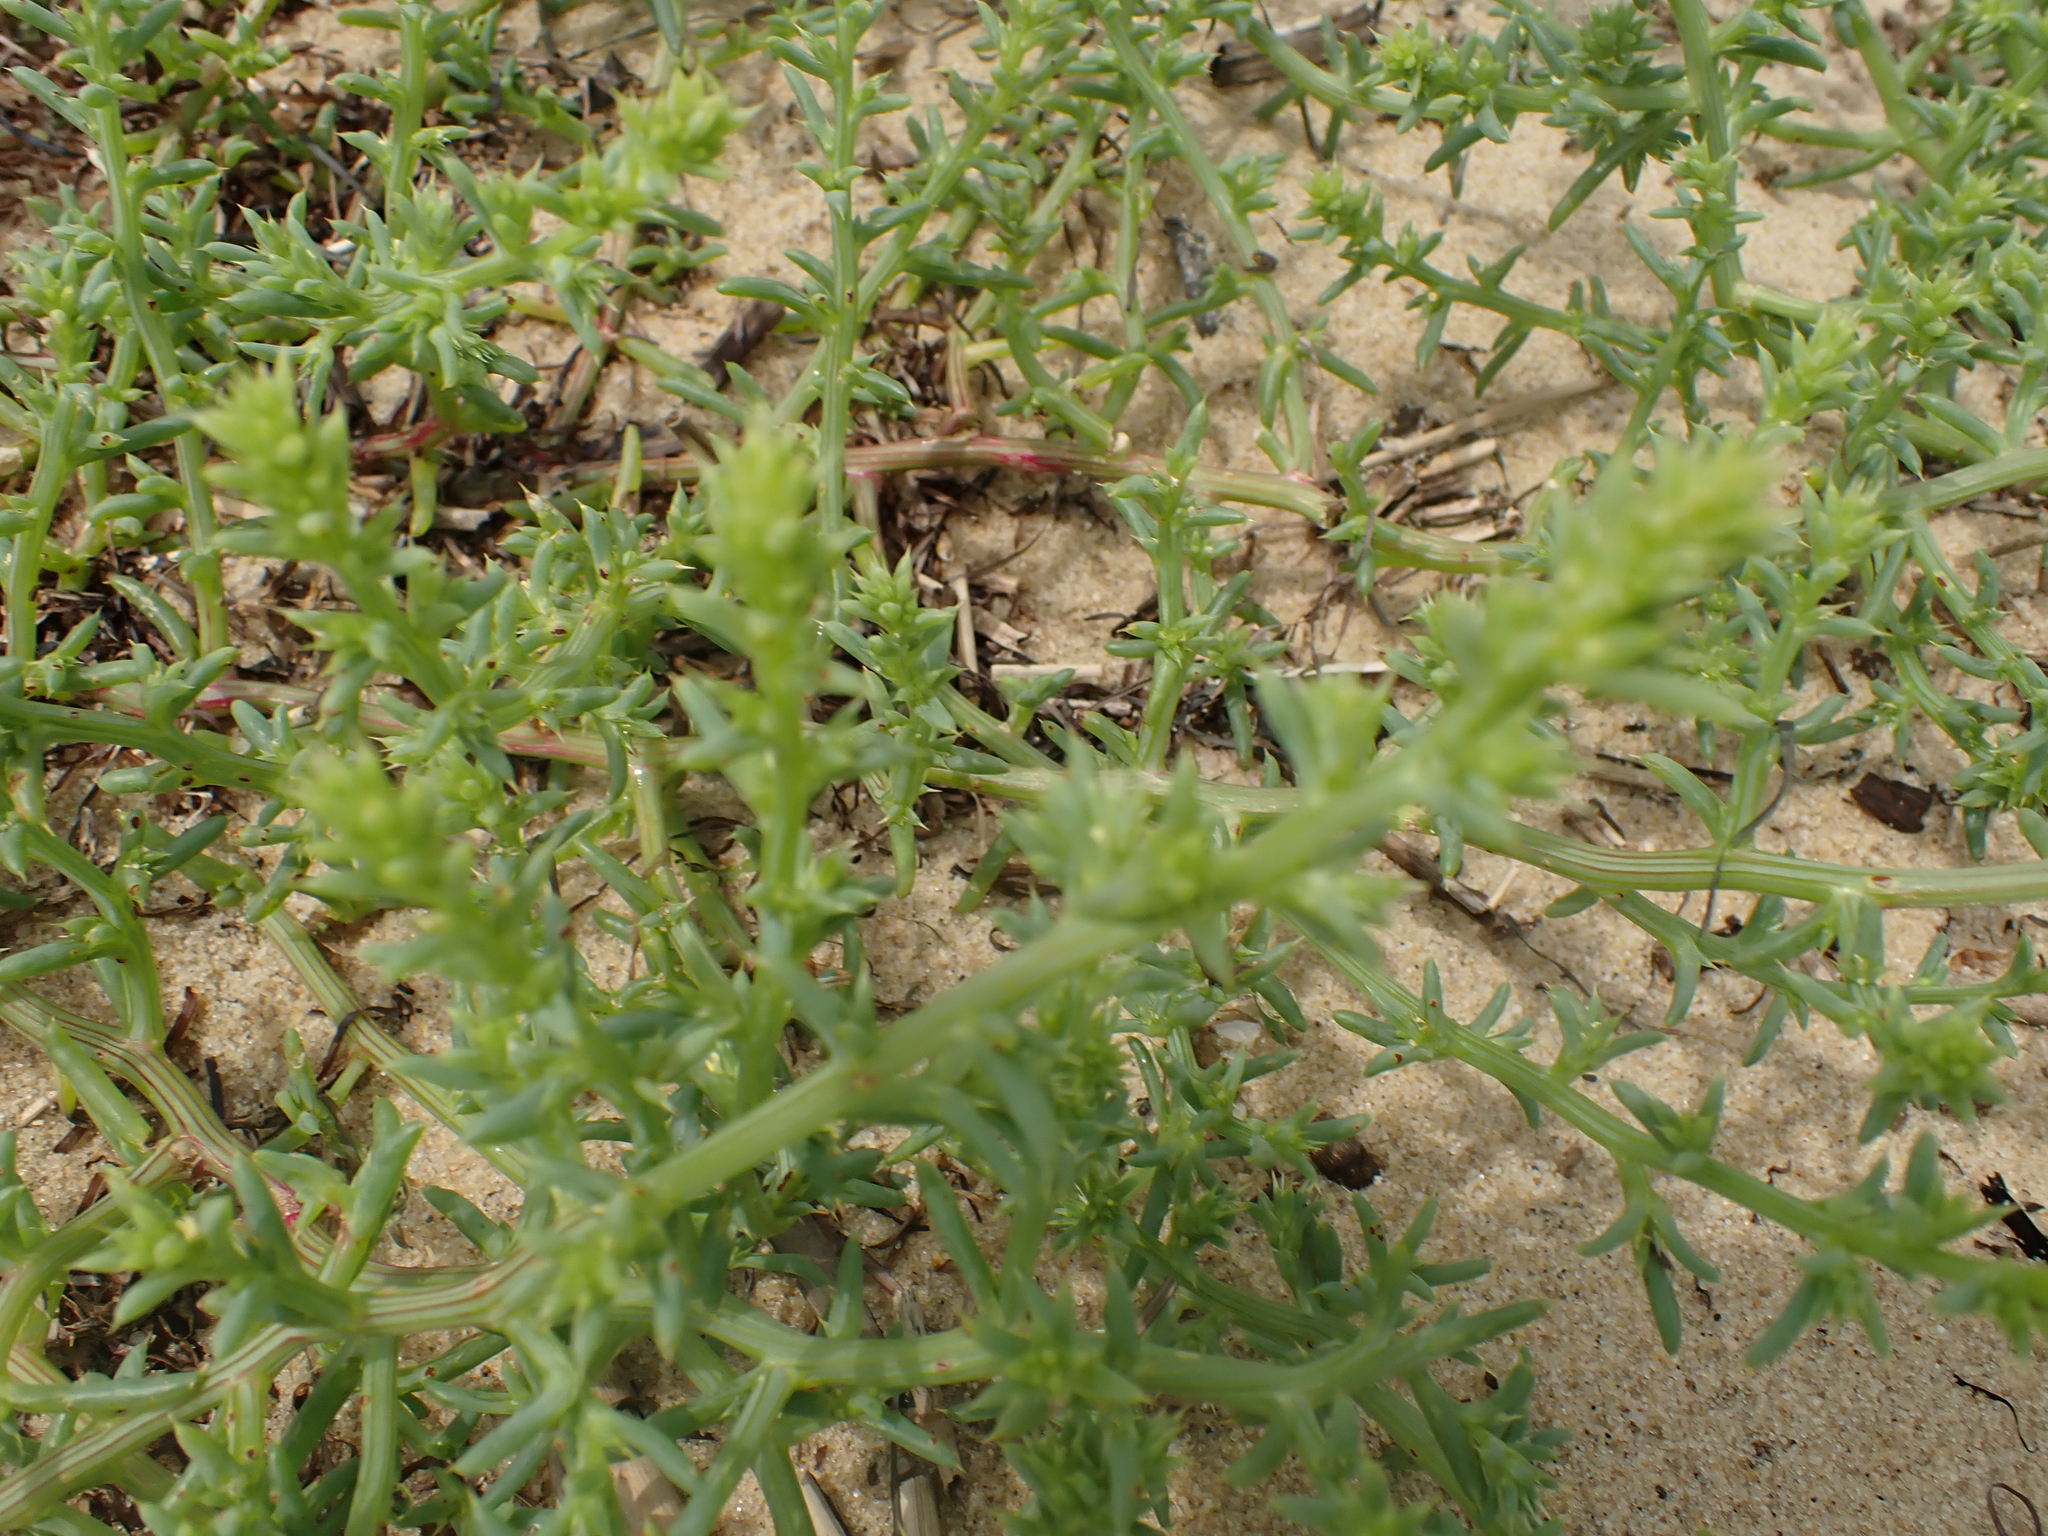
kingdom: Plantae
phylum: Tracheophyta
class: Magnoliopsida
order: Caryophyllales
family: Amaranthaceae
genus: Salsola
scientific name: Salsola kali
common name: Saltwort
